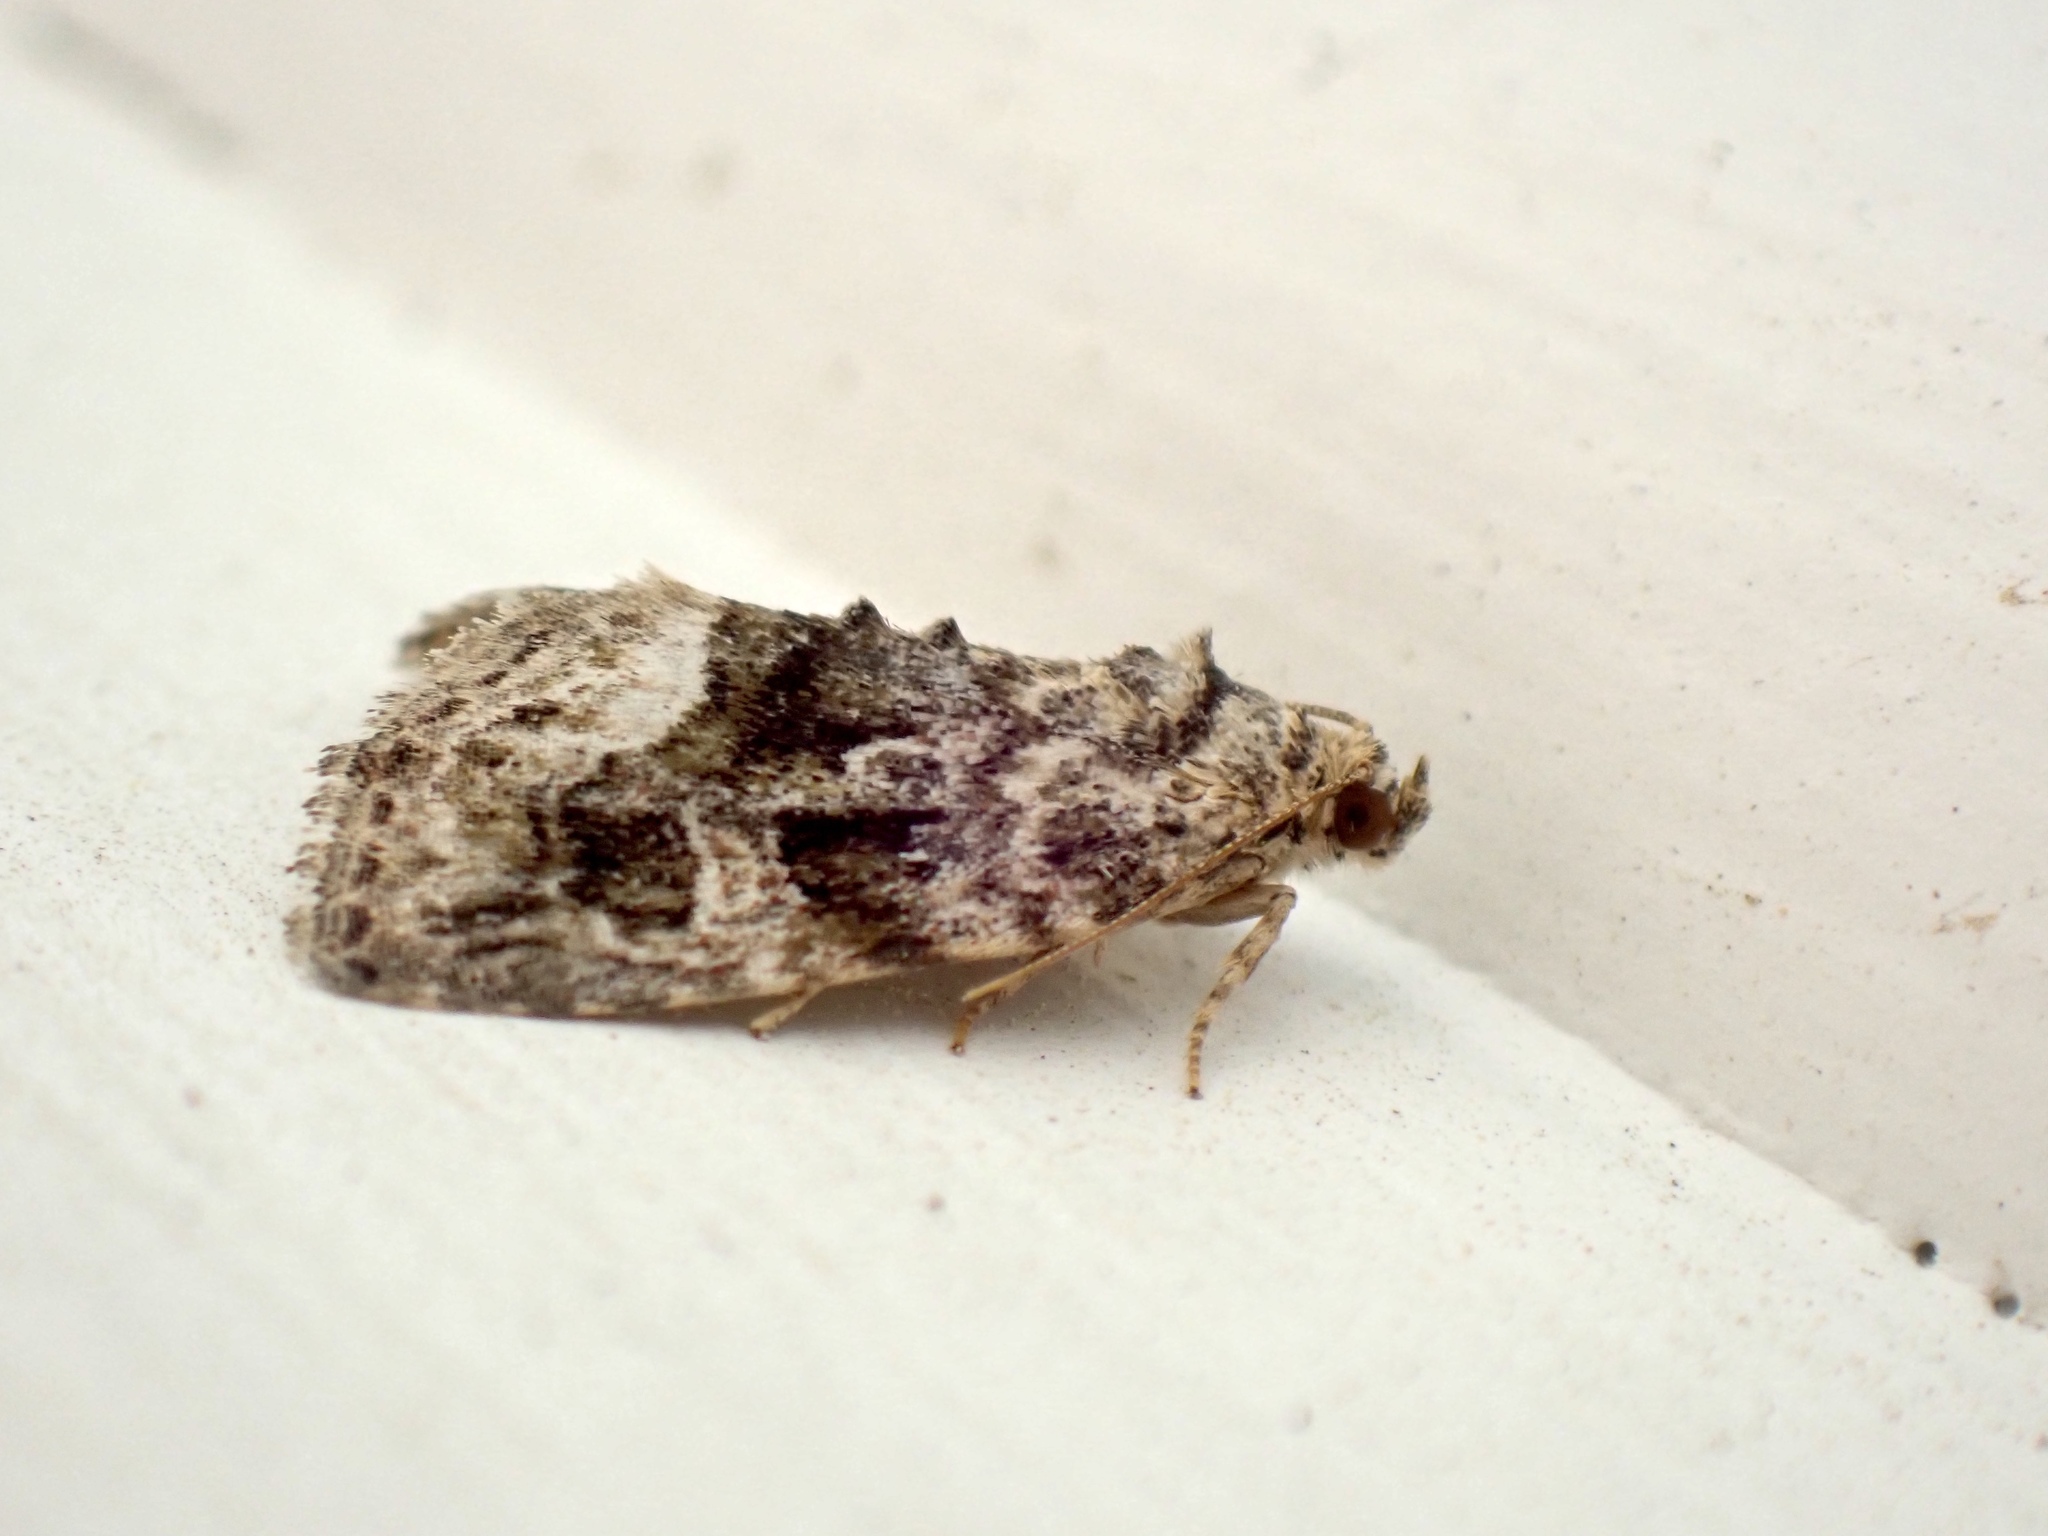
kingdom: Animalia
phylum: Arthropoda
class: Insecta
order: Lepidoptera
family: Noctuidae
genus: Protodeltote
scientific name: Protodeltote muscosula
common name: Large mossy glyph
